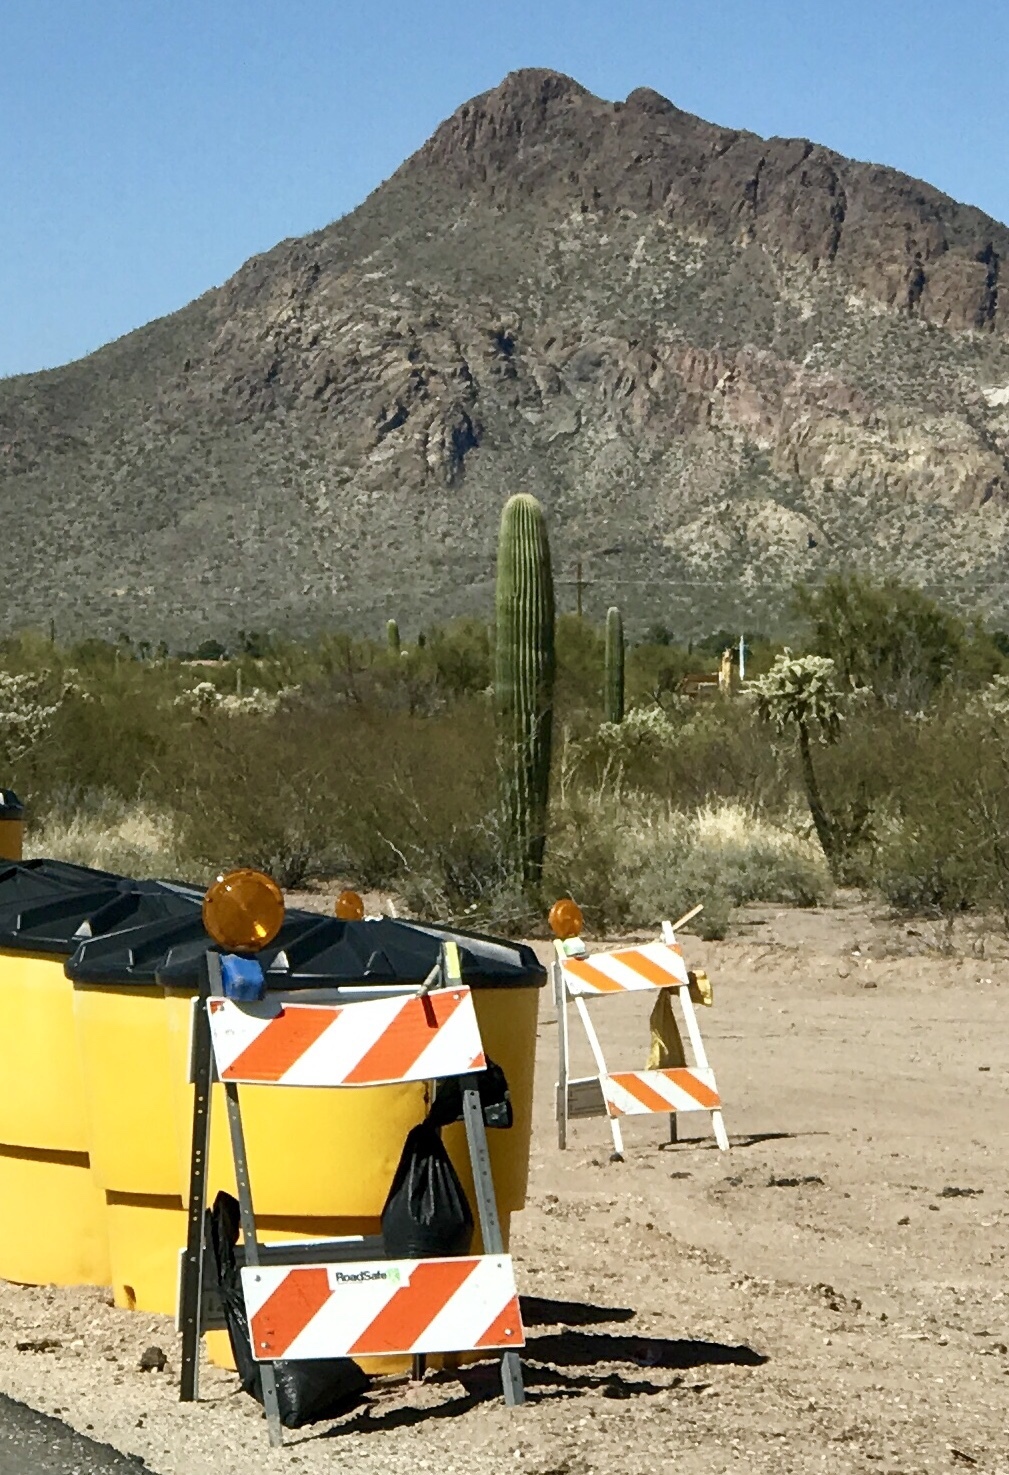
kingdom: Plantae
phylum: Tracheophyta
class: Magnoliopsida
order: Caryophyllales
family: Cactaceae
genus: Carnegiea
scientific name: Carnegiea gigantea
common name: Saguaro
